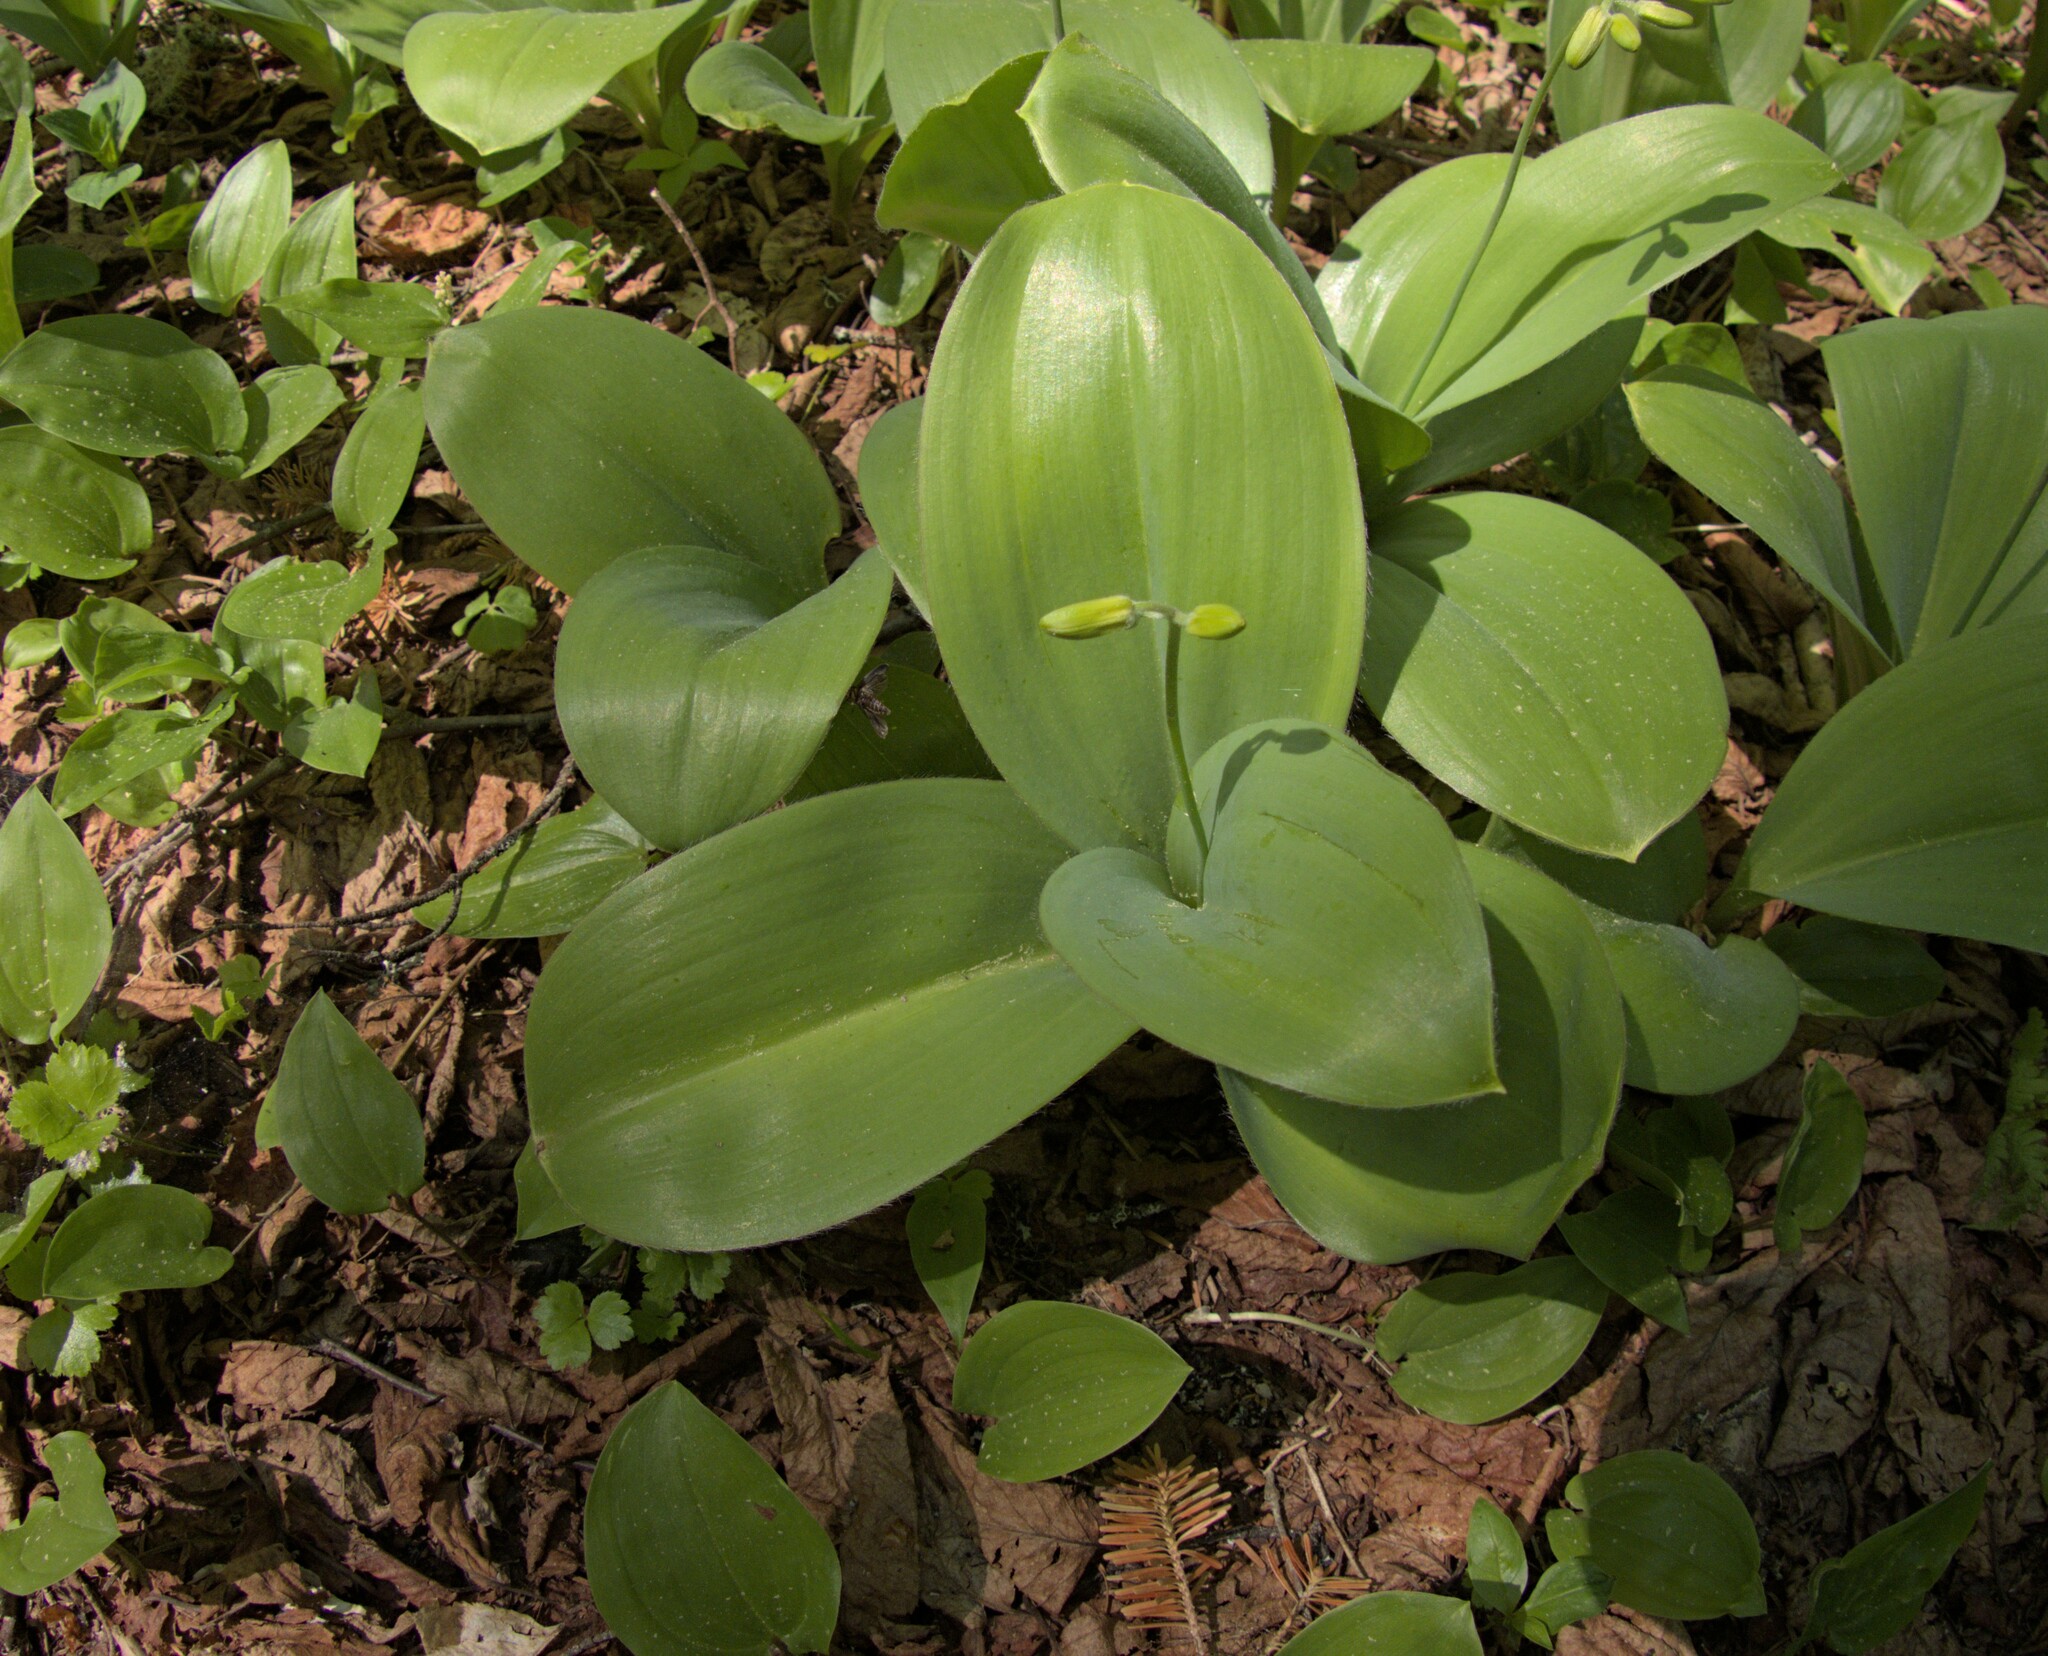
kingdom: Plantae
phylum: Tracheophyta
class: Liliopsida
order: Liliales
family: Liliaceae
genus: Clintonia
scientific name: Clintonia borealis
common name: Yellow clintonia
